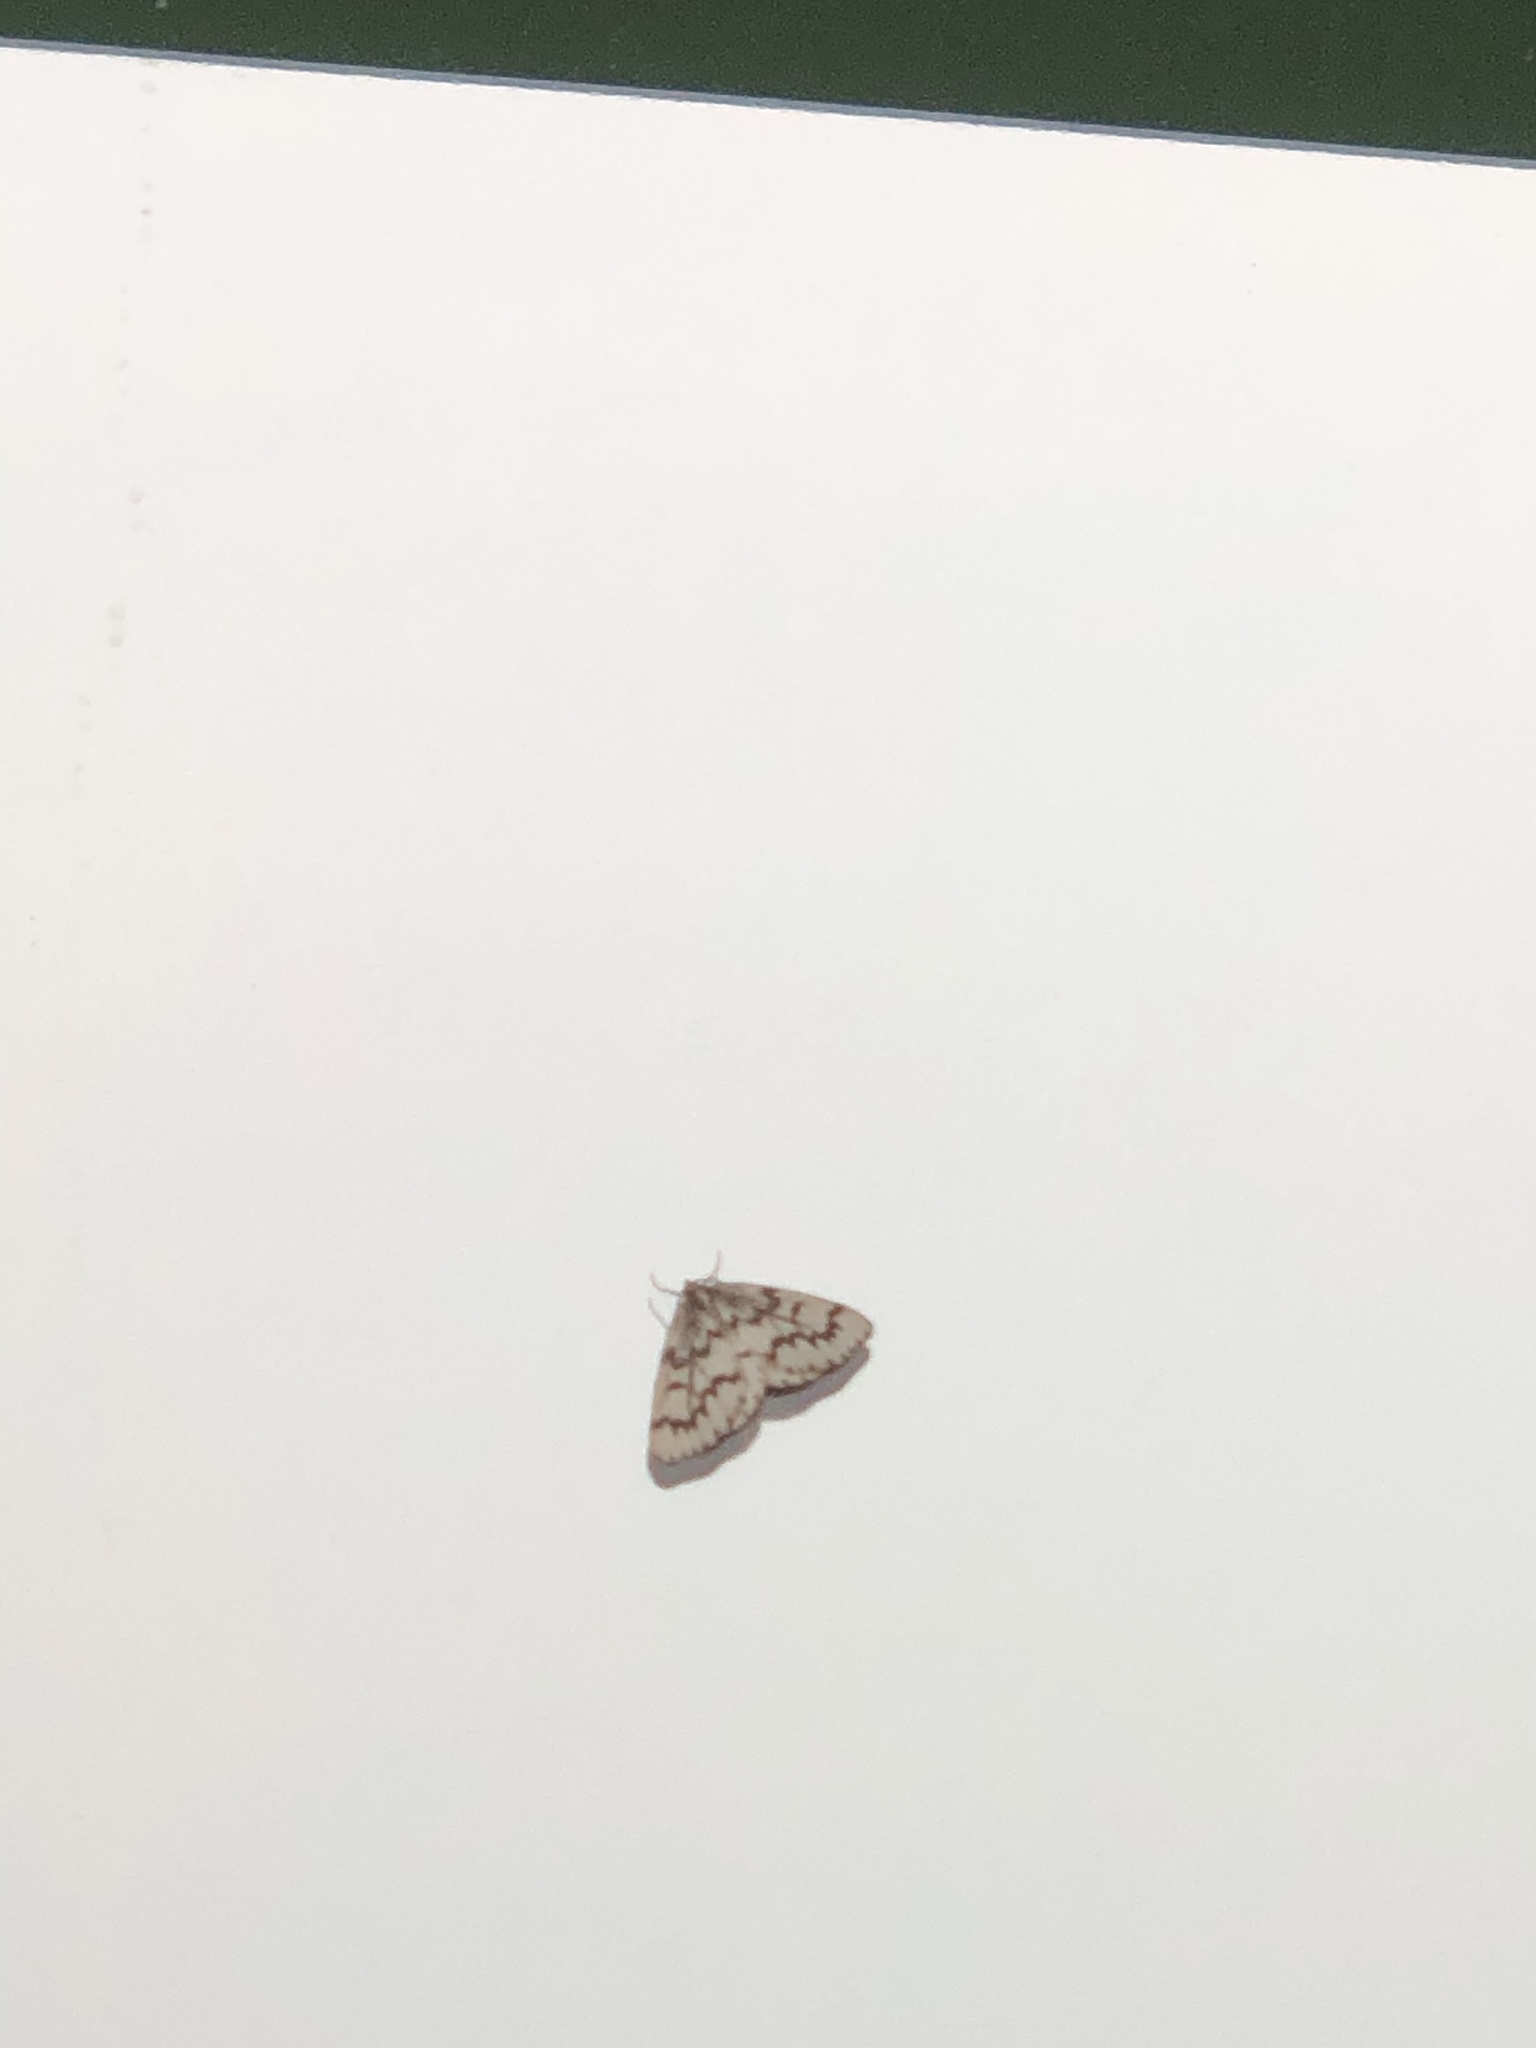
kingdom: Animalia
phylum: Arthropoda
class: Insecta
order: Lepidoptera
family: Geometridae
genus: Nepytia
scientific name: Nepytia phantasmaria
